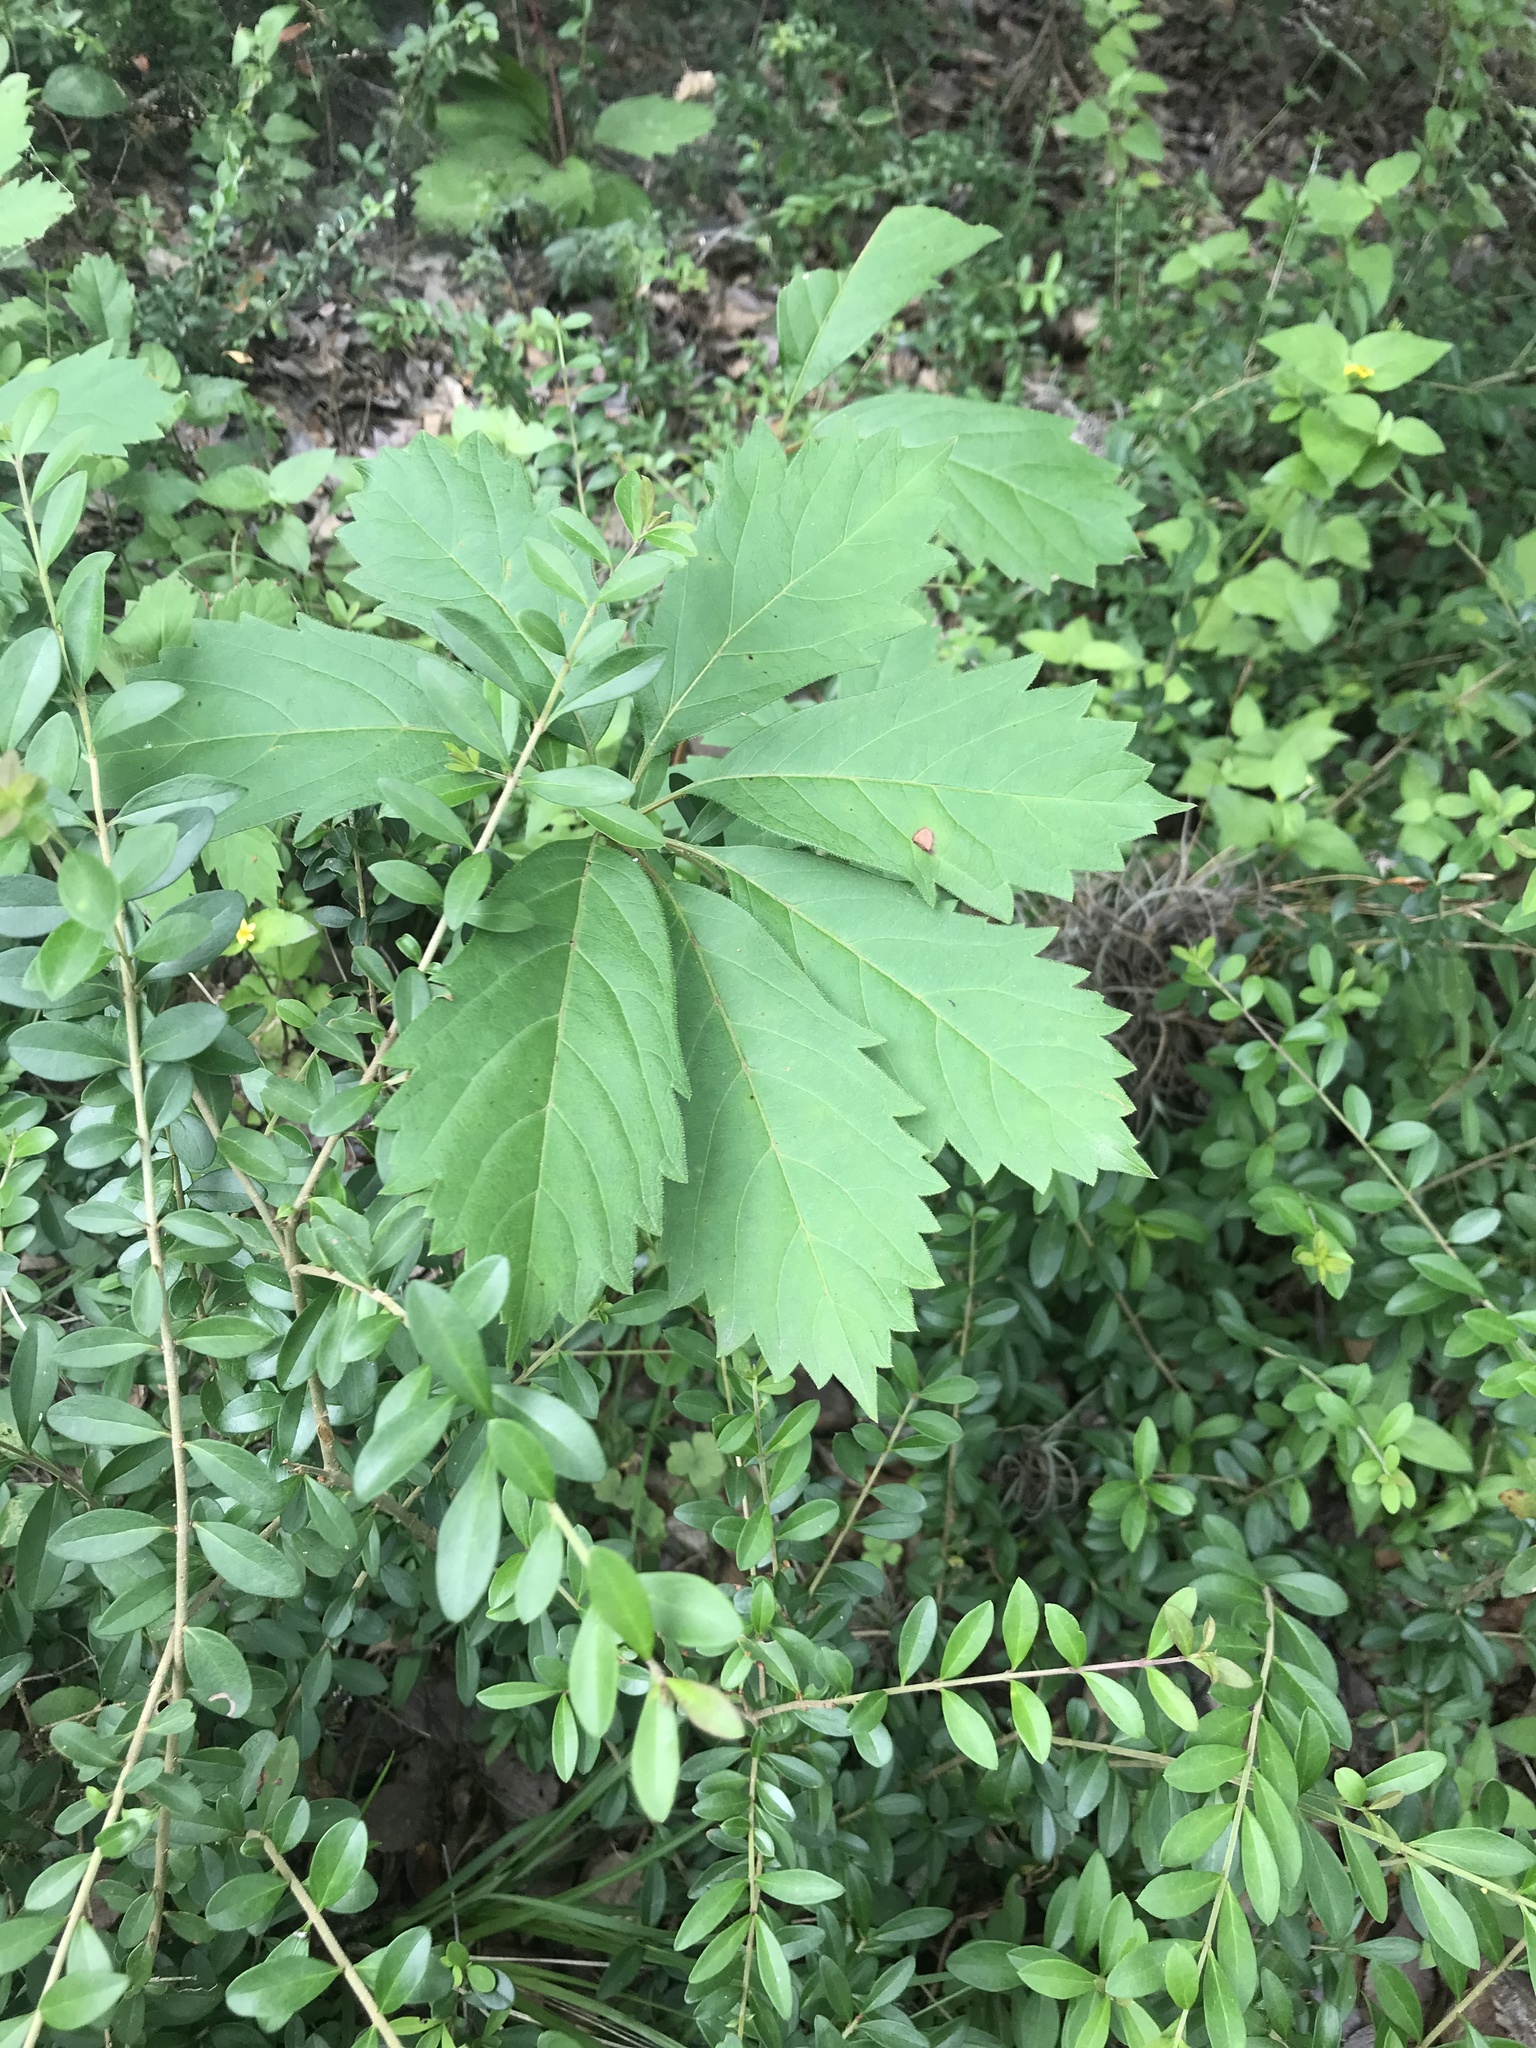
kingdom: Plantae
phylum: Tracheophyta
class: Magnoliopsida
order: Vitales
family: Vitaceae
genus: Parthenocissus
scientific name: Parthenocissus heptaphylla
